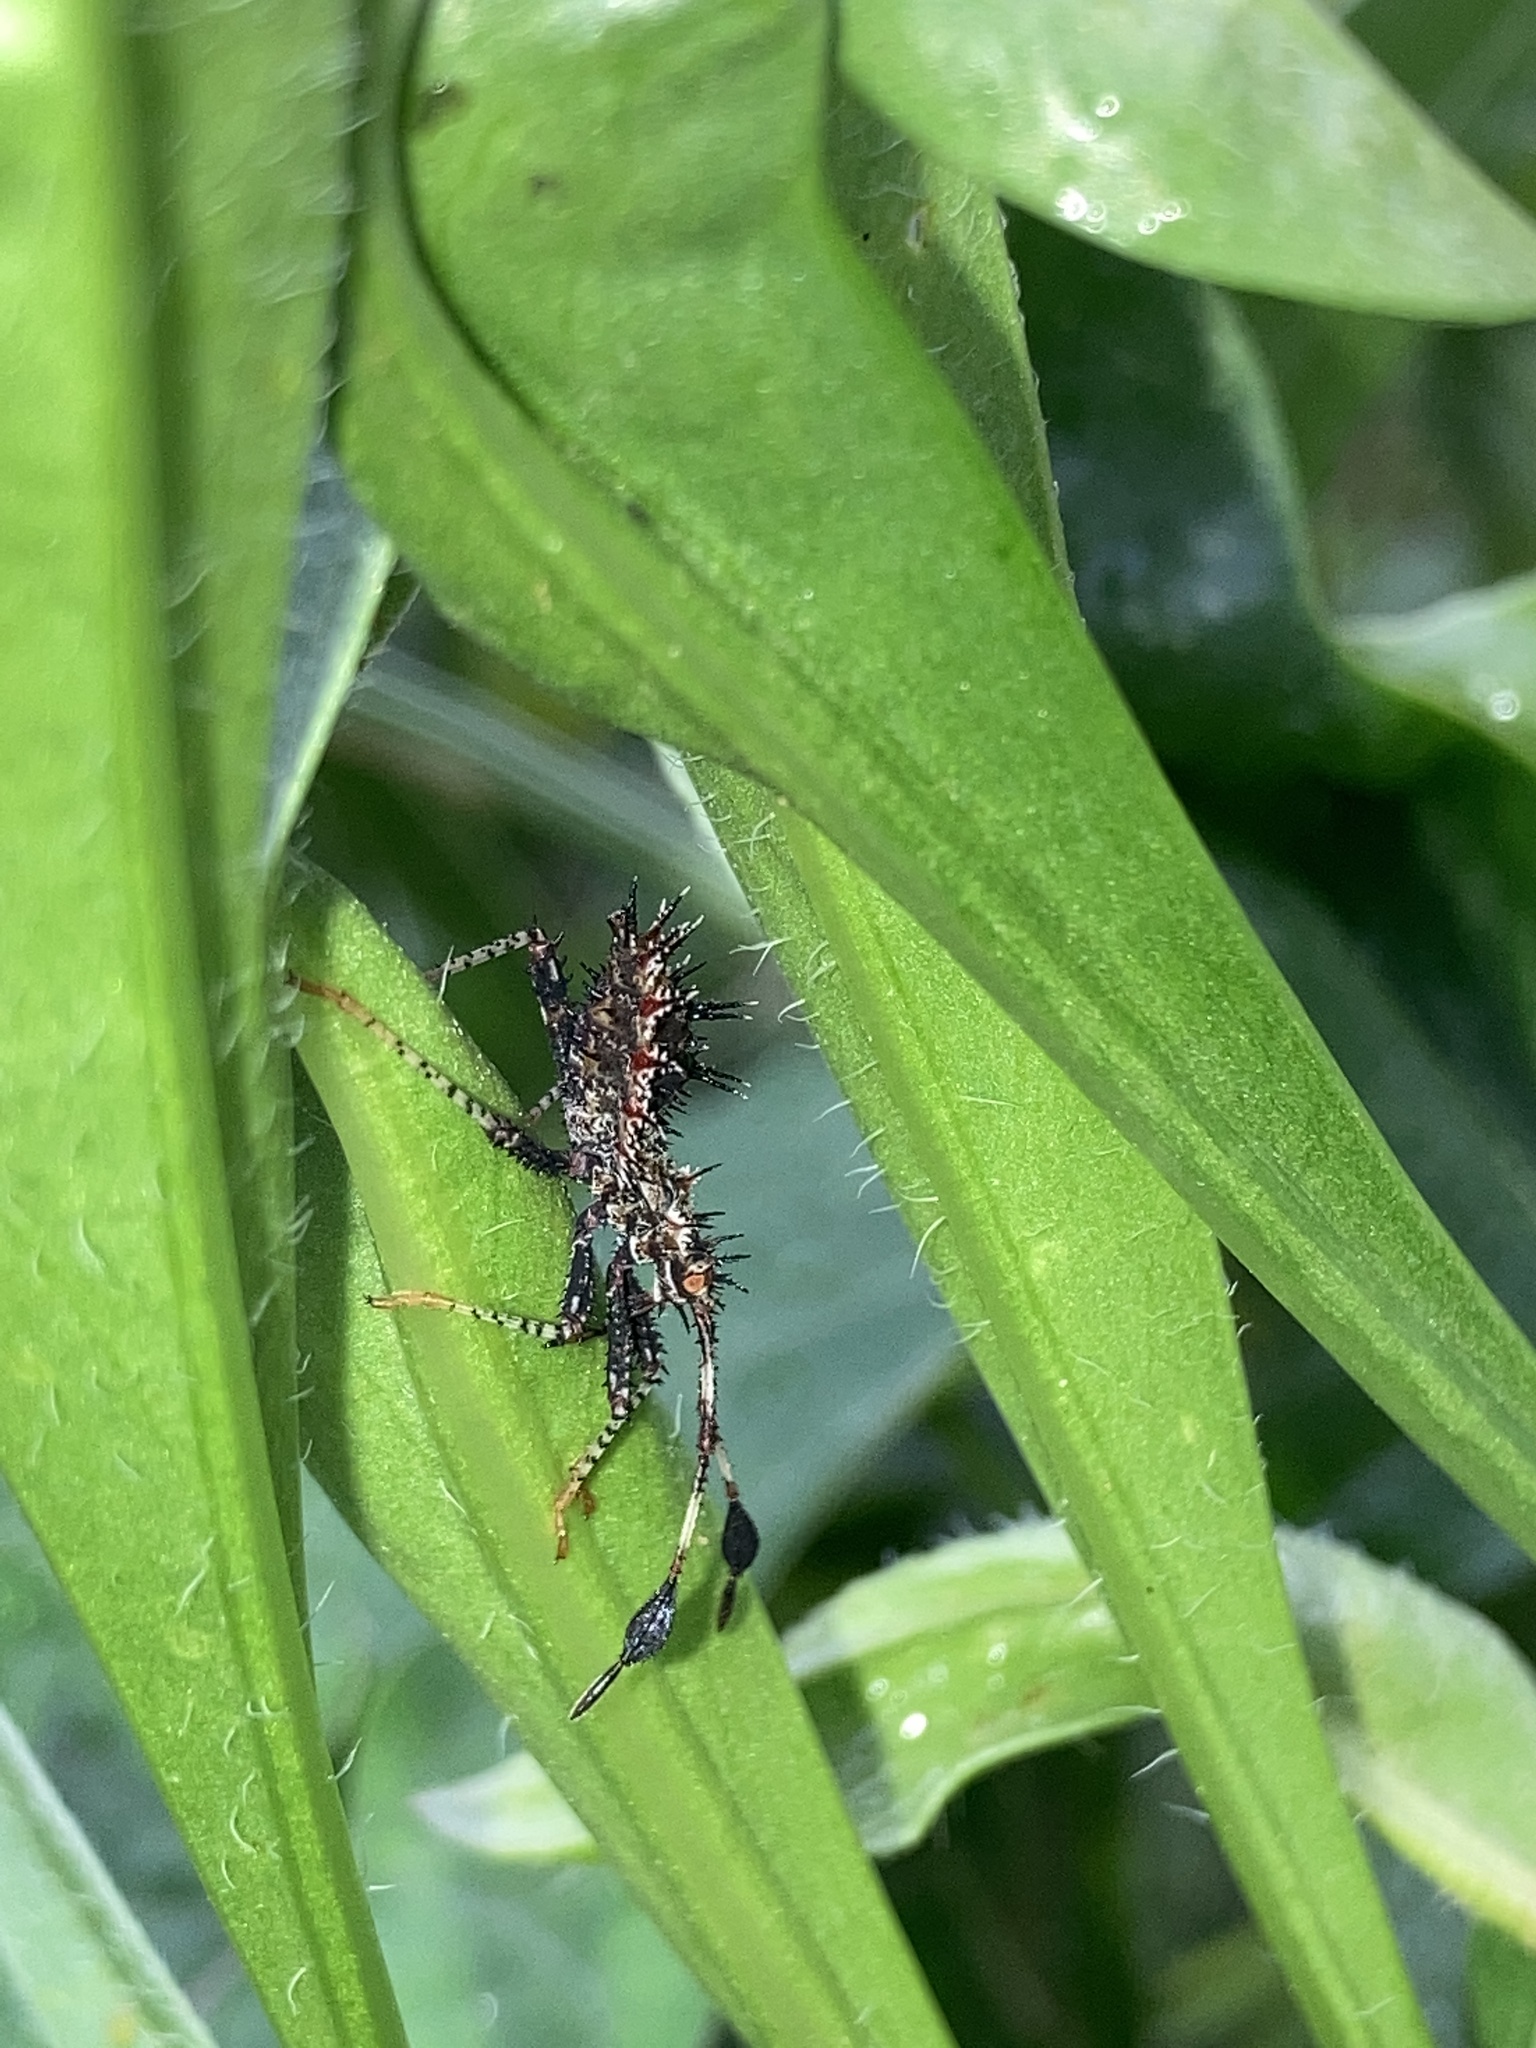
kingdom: Animalia
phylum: Arthropoda
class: Insecta
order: Hemiptera
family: Coreidae
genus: Euthochtha
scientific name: Euthochtha galeator
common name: Helmeted squash bug
